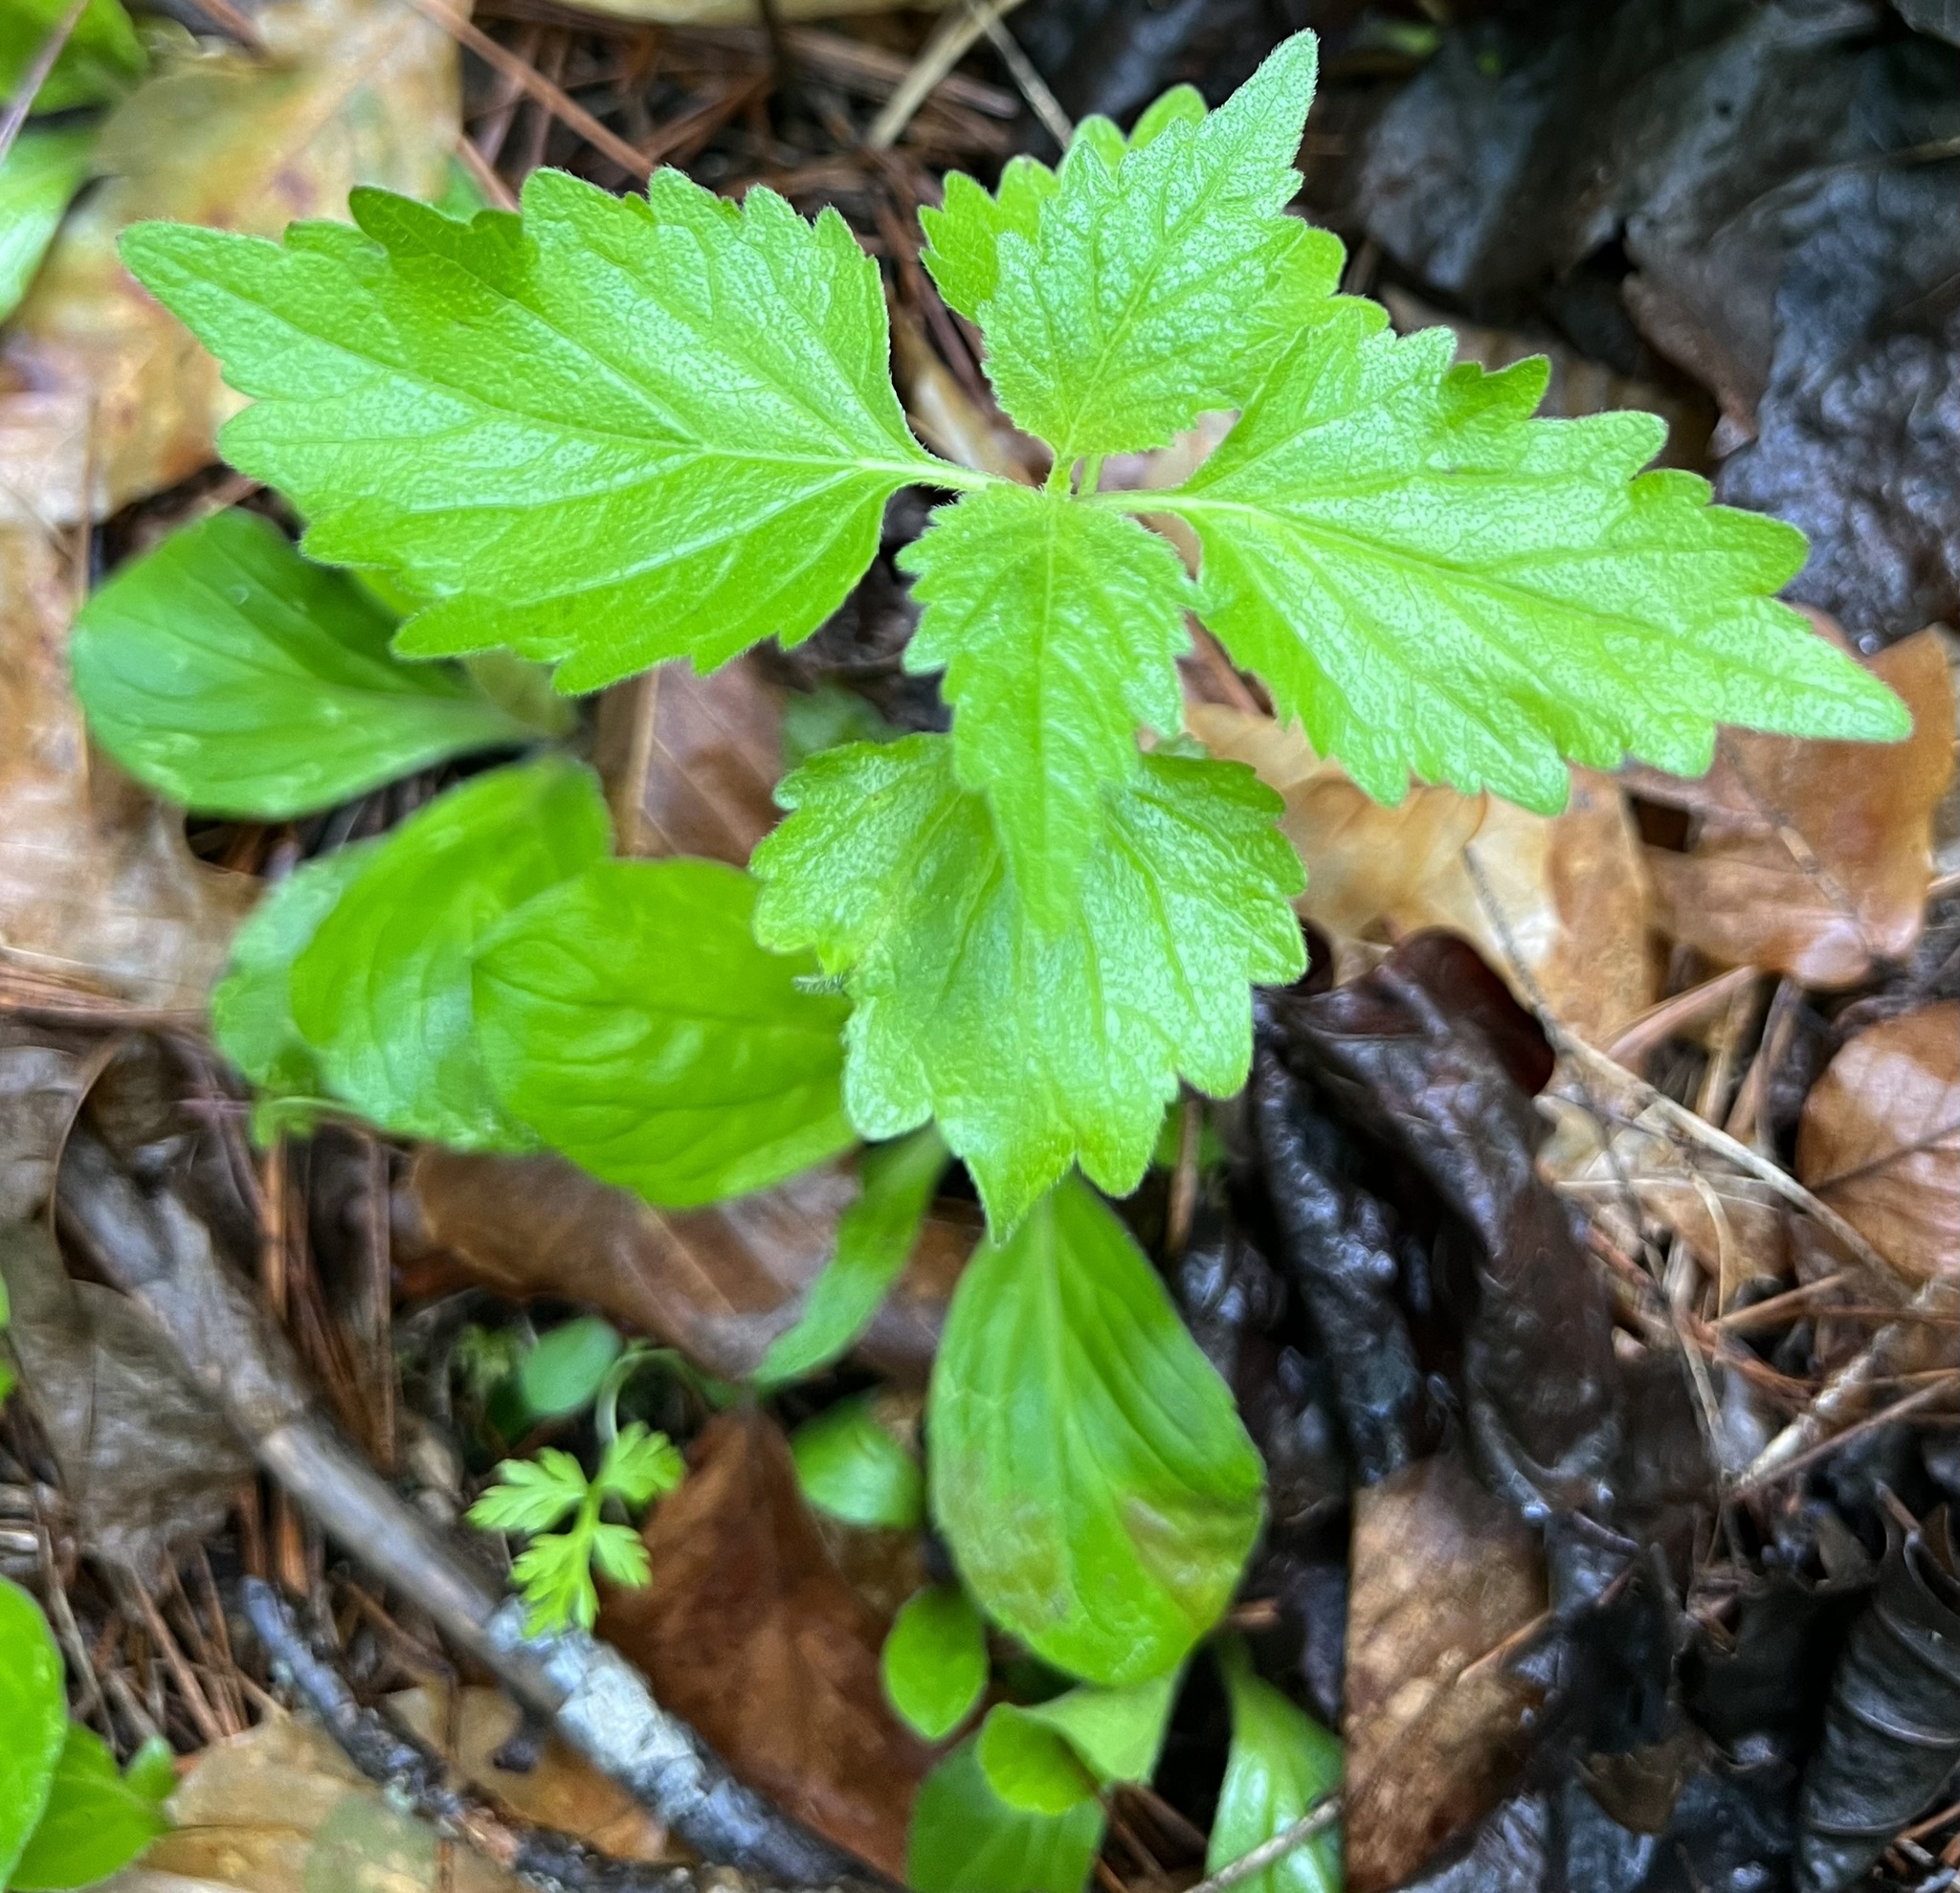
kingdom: Plantae
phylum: Tracheophyta
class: Magnoliopsida
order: Lamiales
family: Phrymaceae
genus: Phryma
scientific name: Phryma leptostachya
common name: American lopseed
